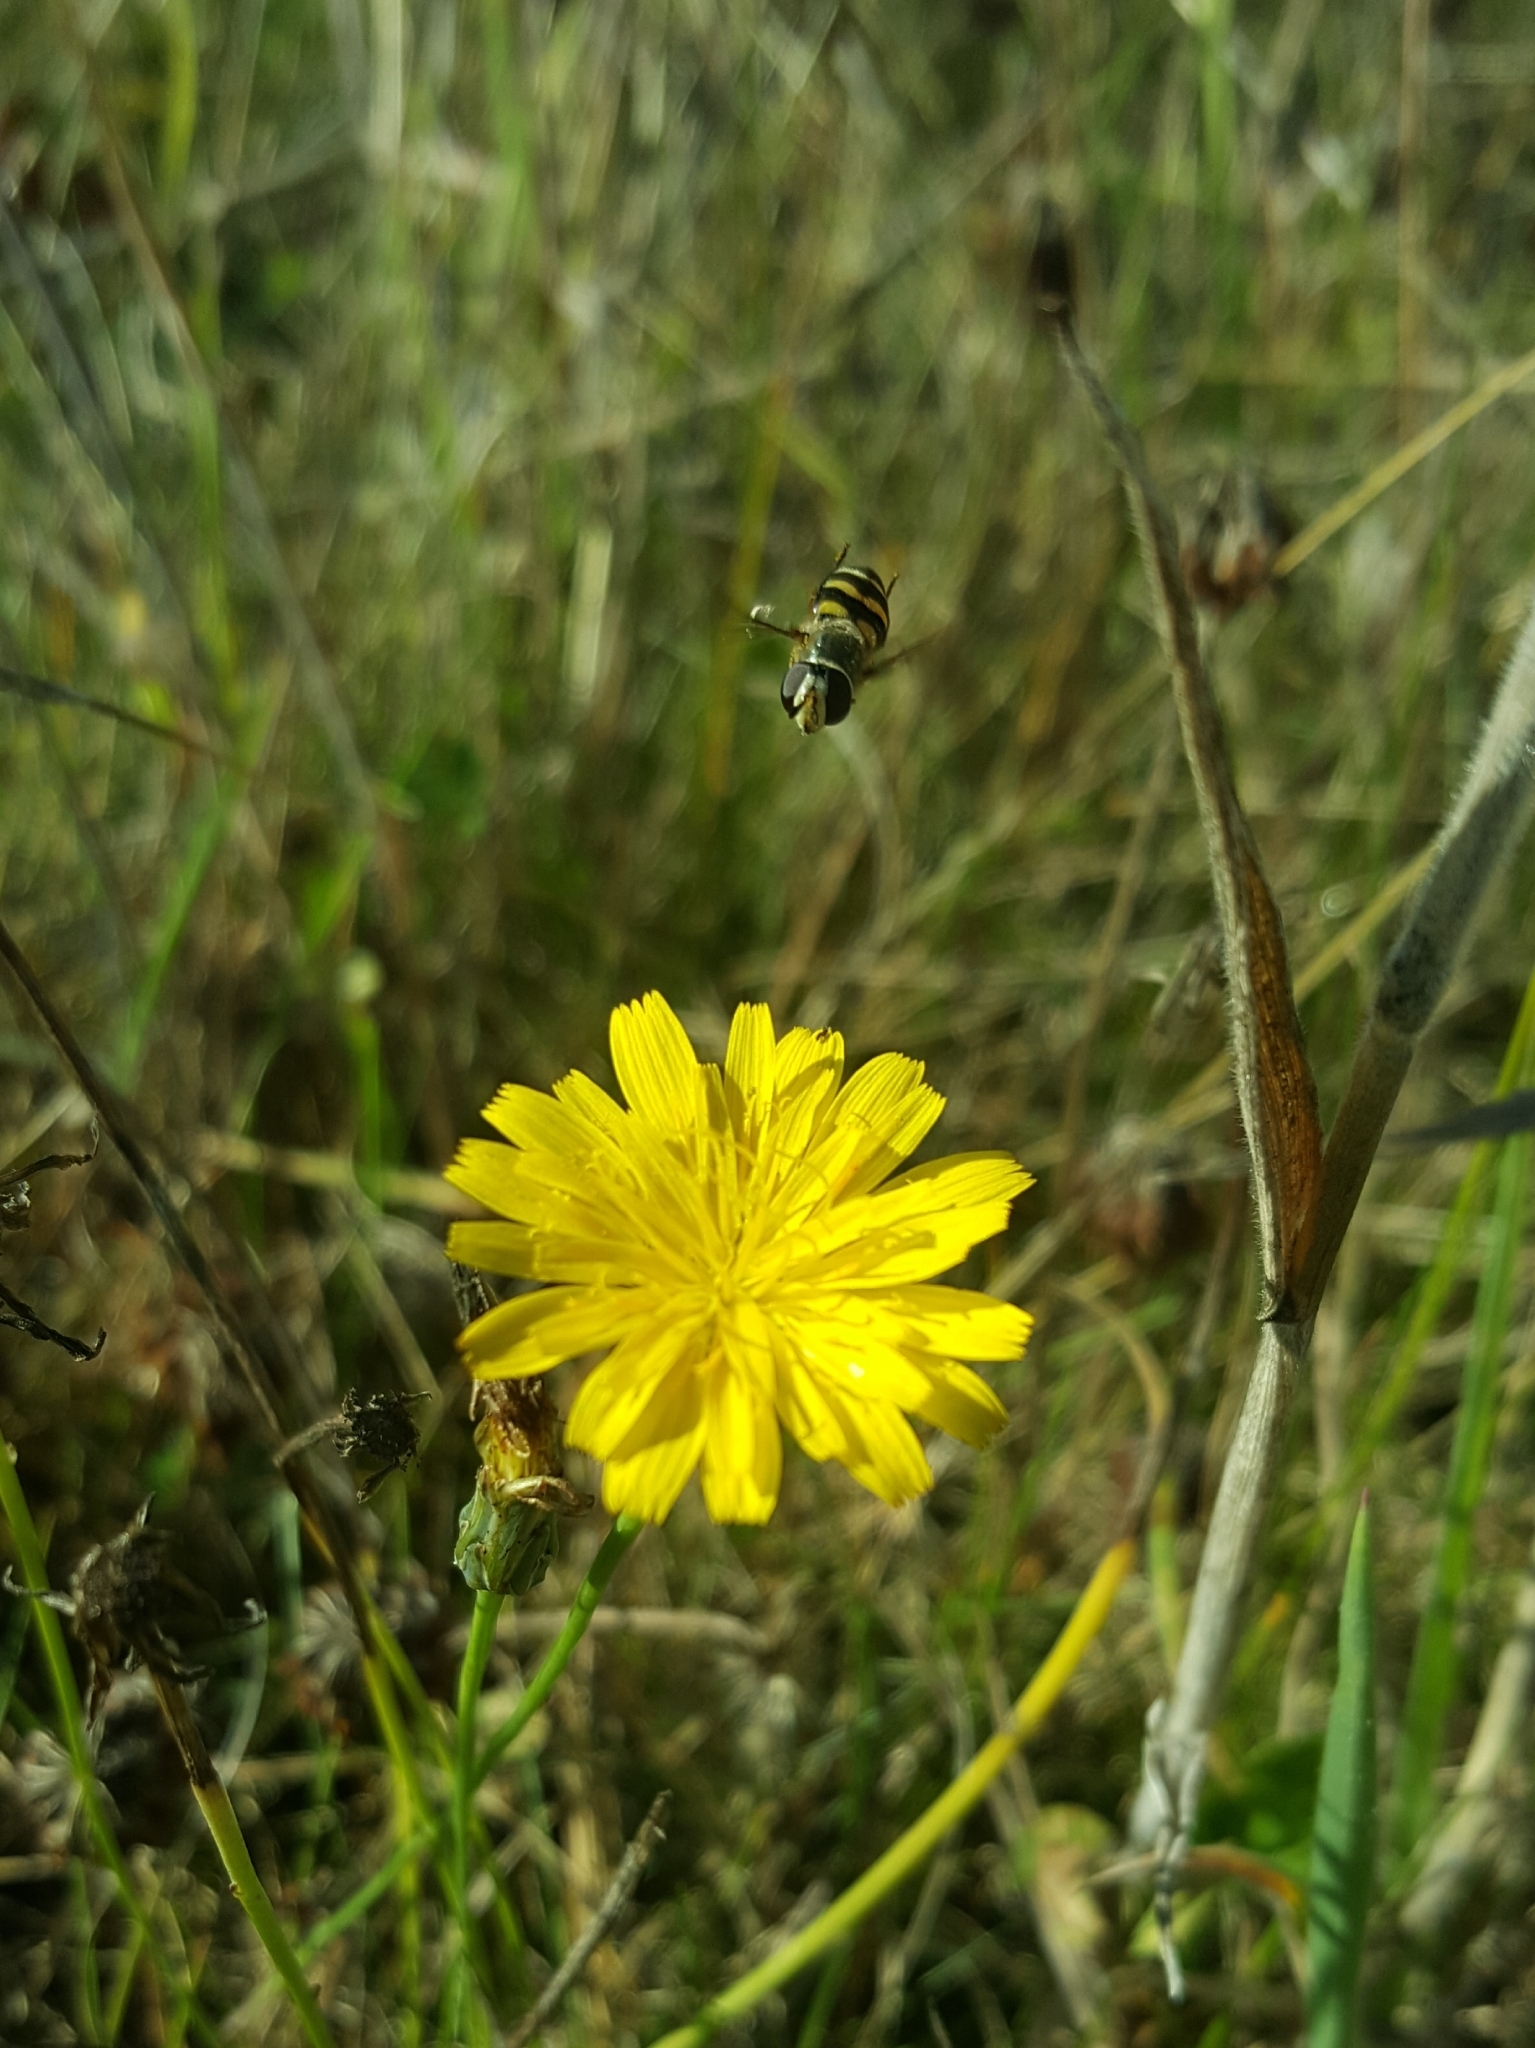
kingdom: Animalia
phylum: Arthropoda
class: Insecta
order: Diptera
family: Syrphidae
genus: Eupeodes
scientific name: Eupeodes fumipennis
